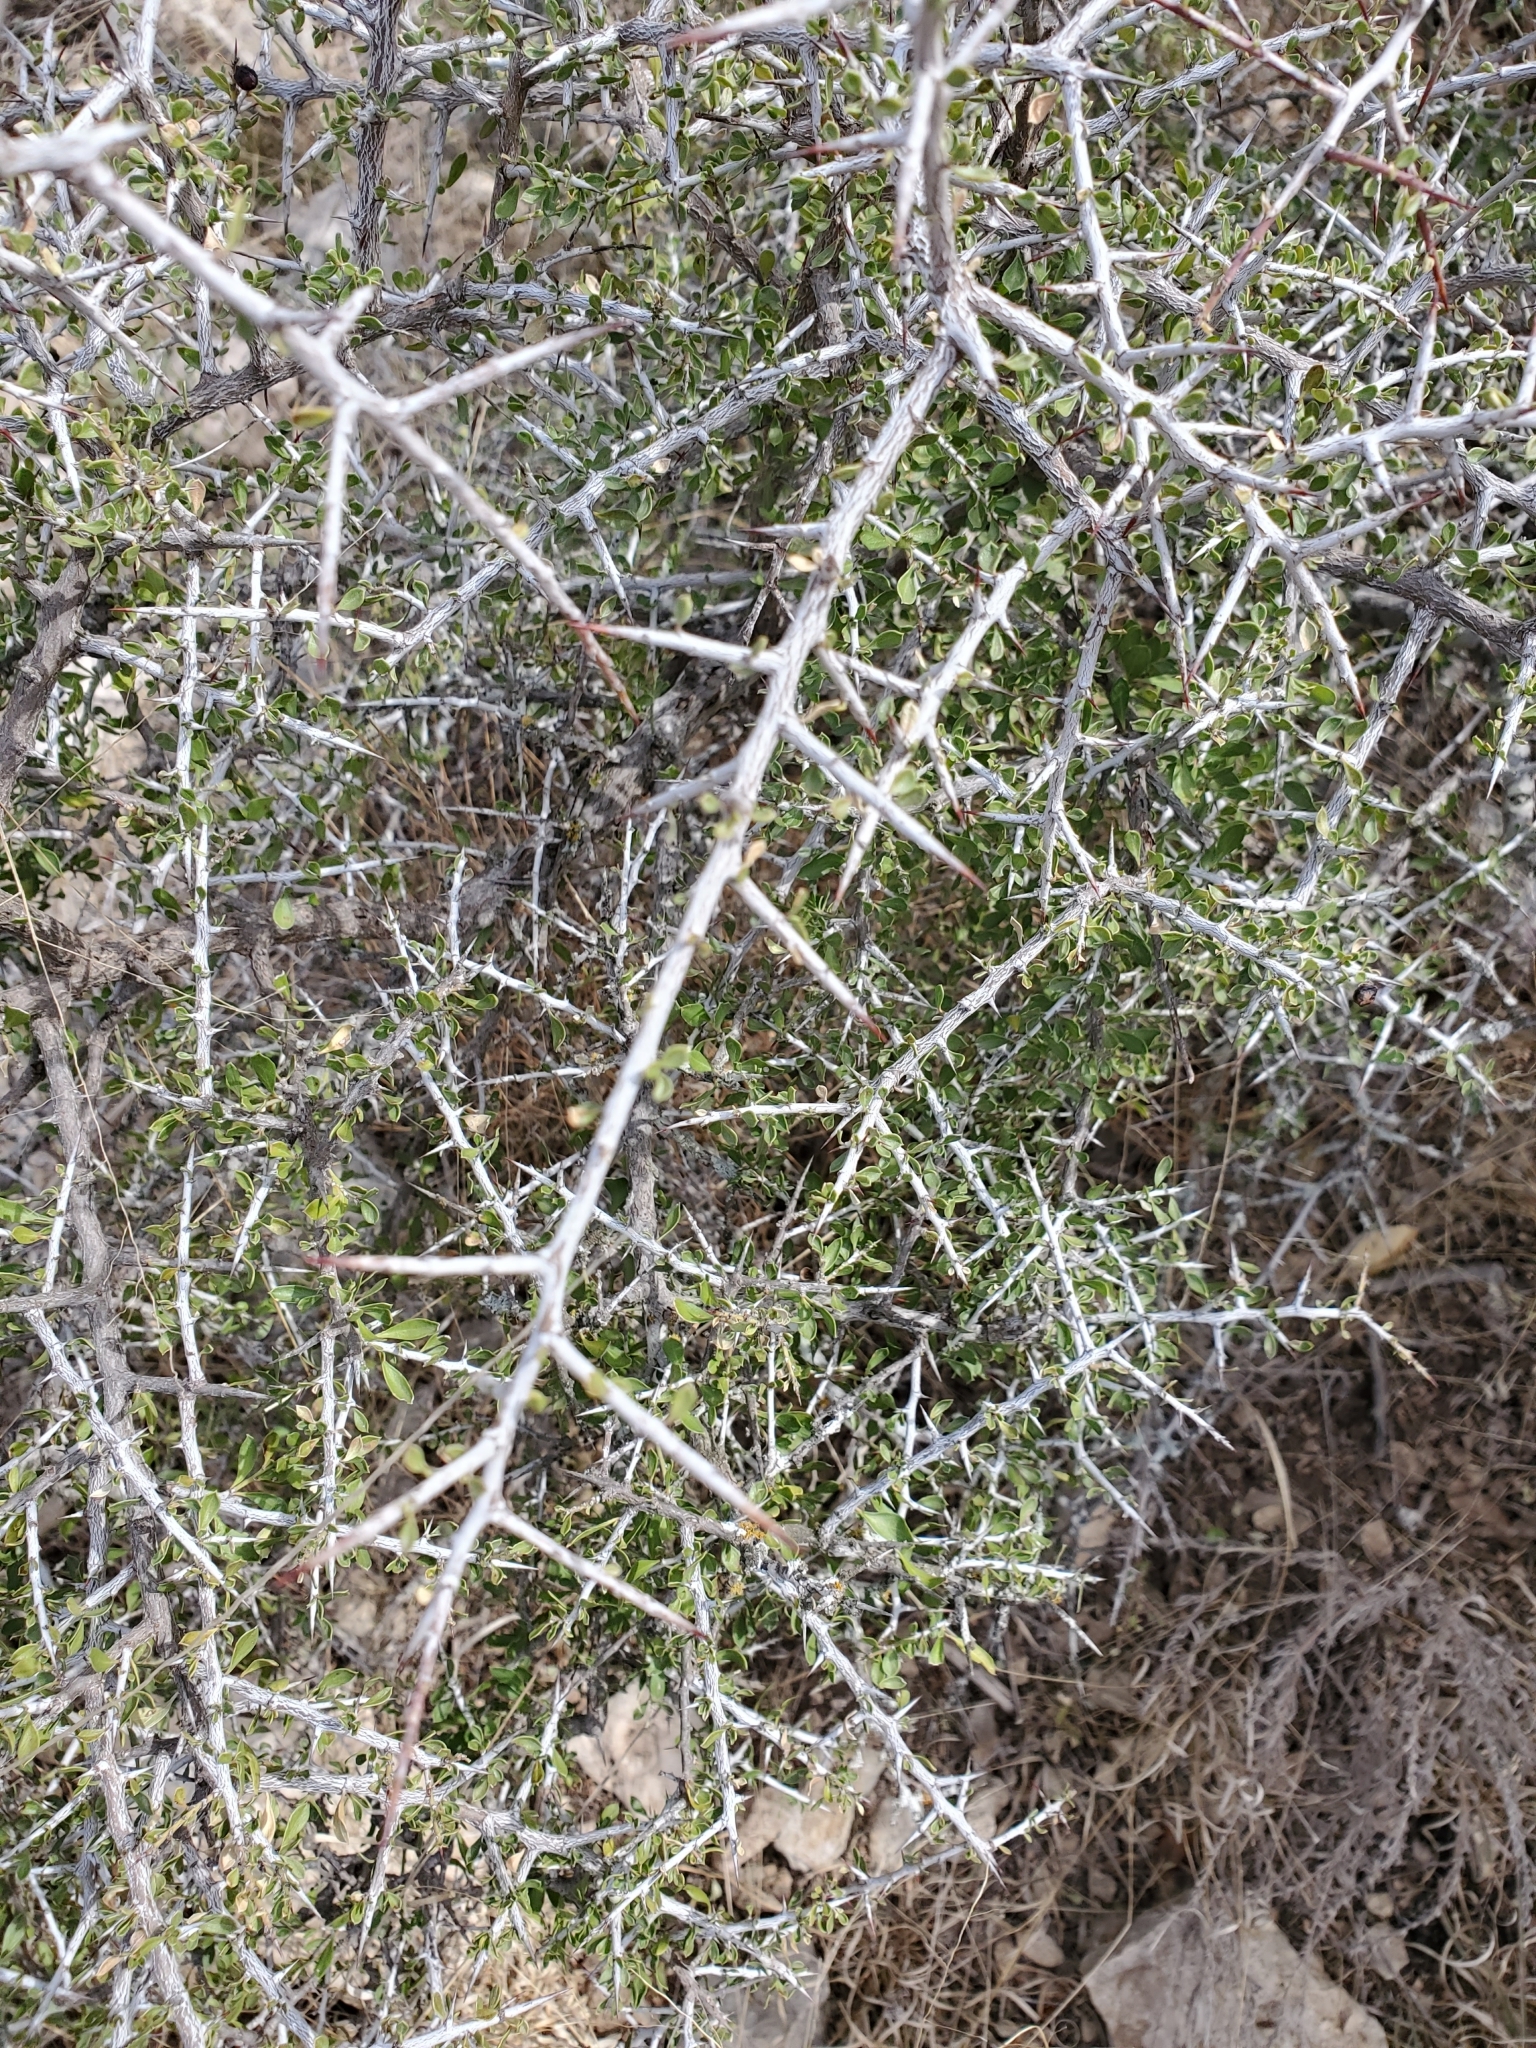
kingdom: Plantae
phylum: Tracheophyta
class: Magnoliopsida
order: Rosales
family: Rhamnaceae
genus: Condalia
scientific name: Condalia viridis
